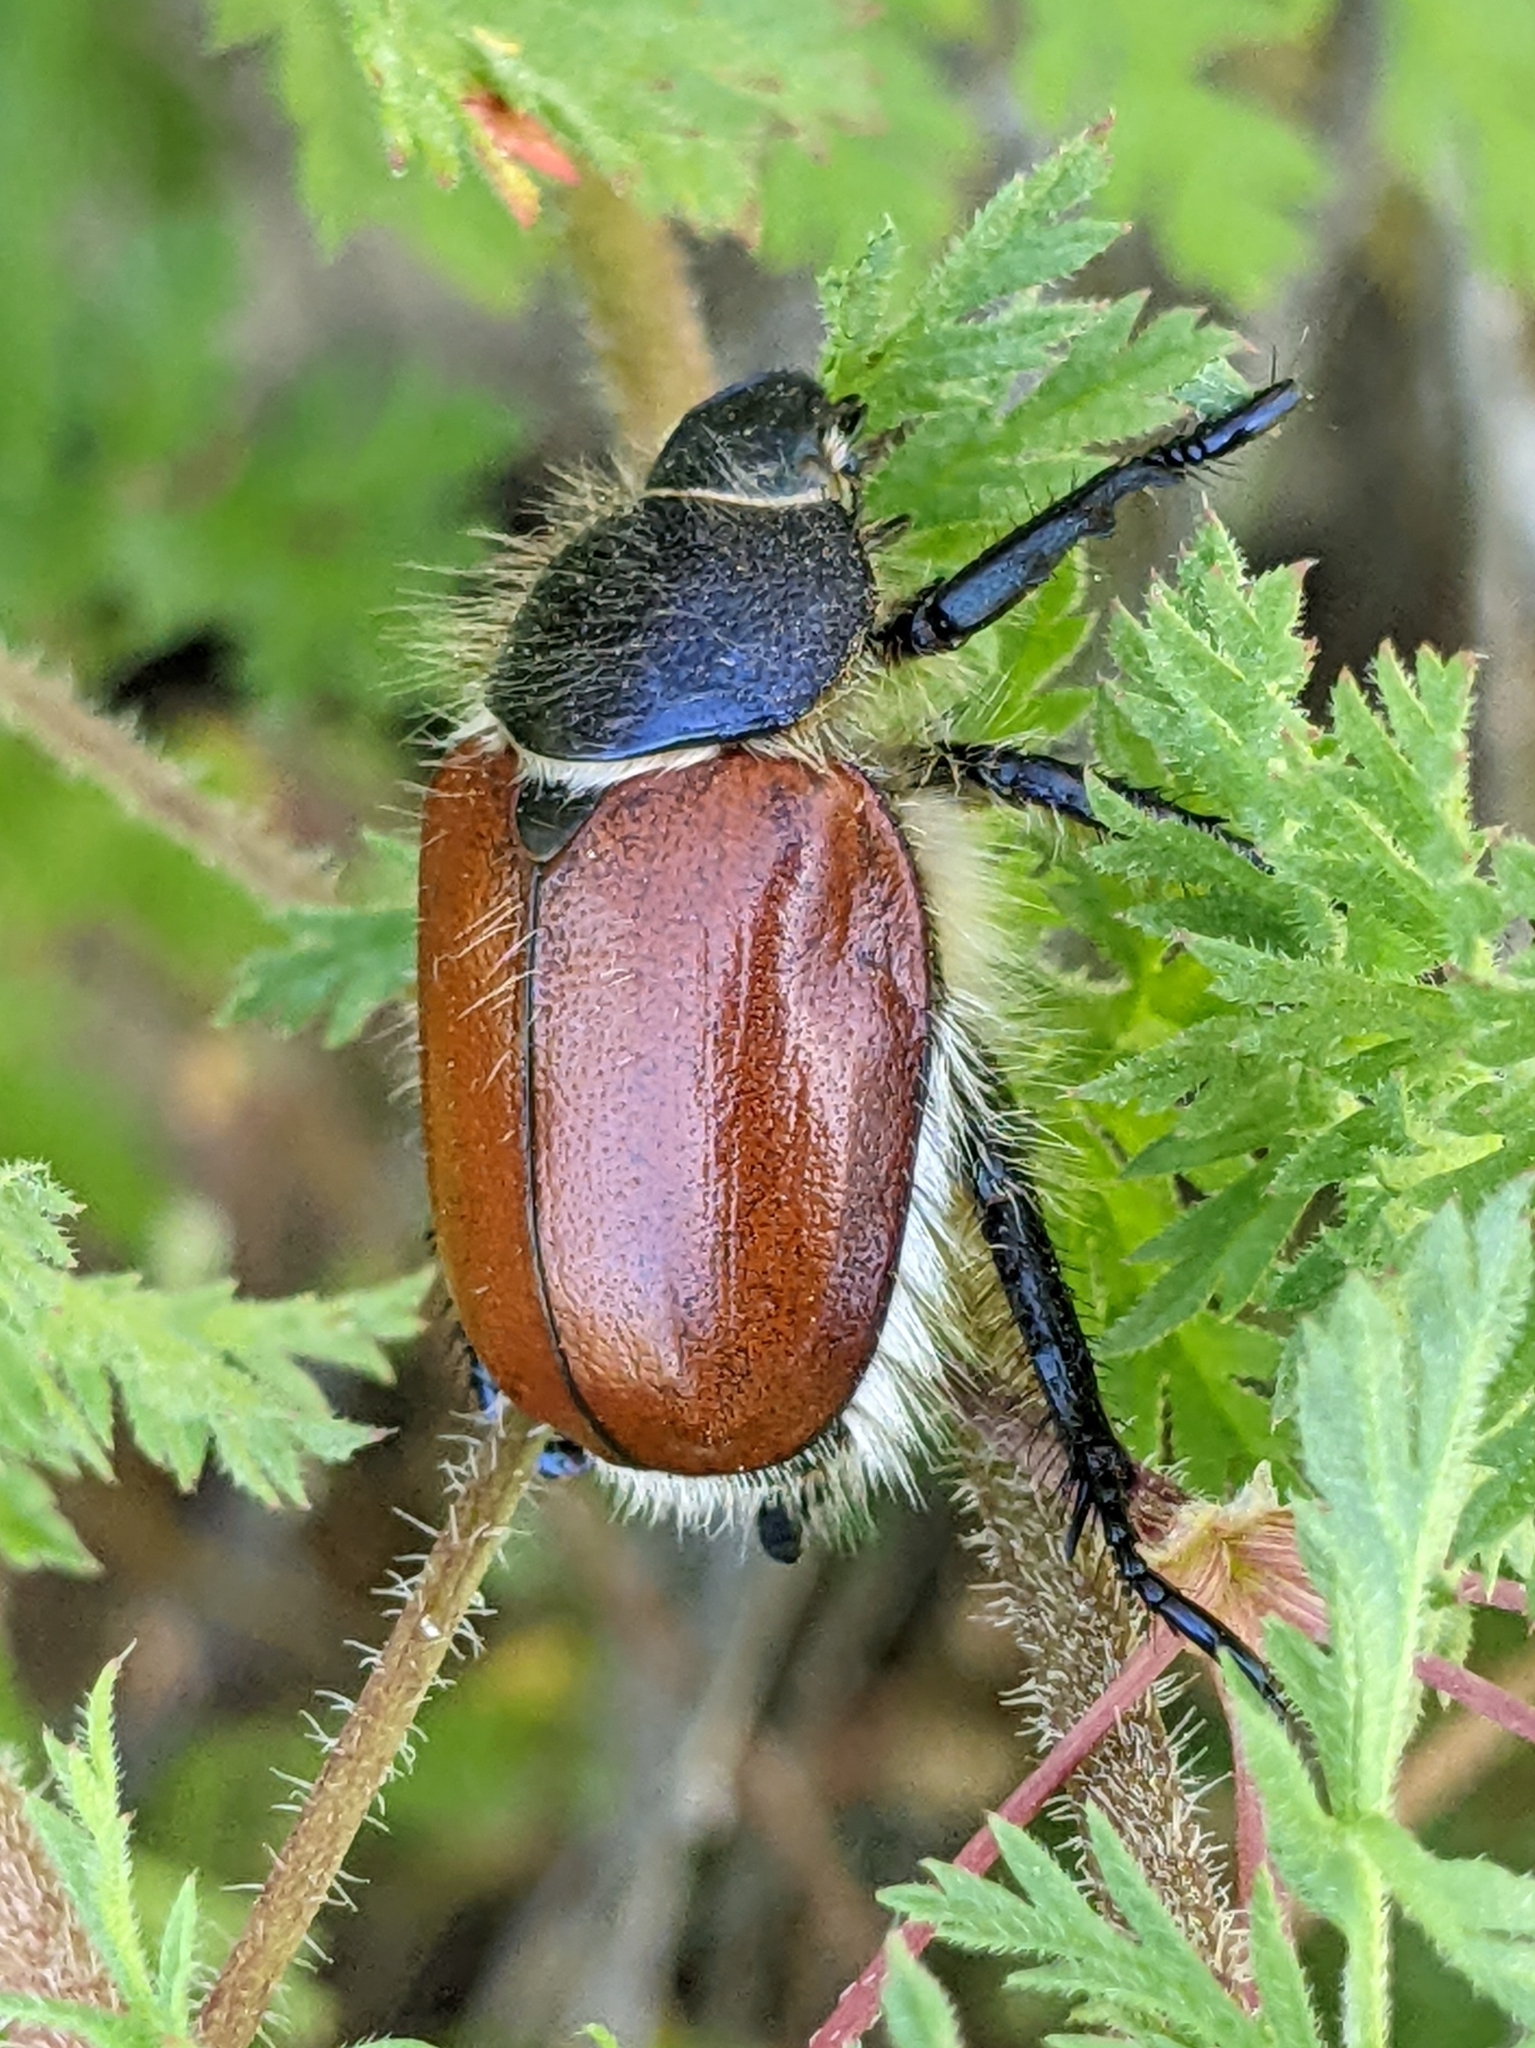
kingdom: Animalia
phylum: Arthropoda
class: Insecta
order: Coleoptera
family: Scarabaeidae
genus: Paracotalpa
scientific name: Paracotalpa ursina
